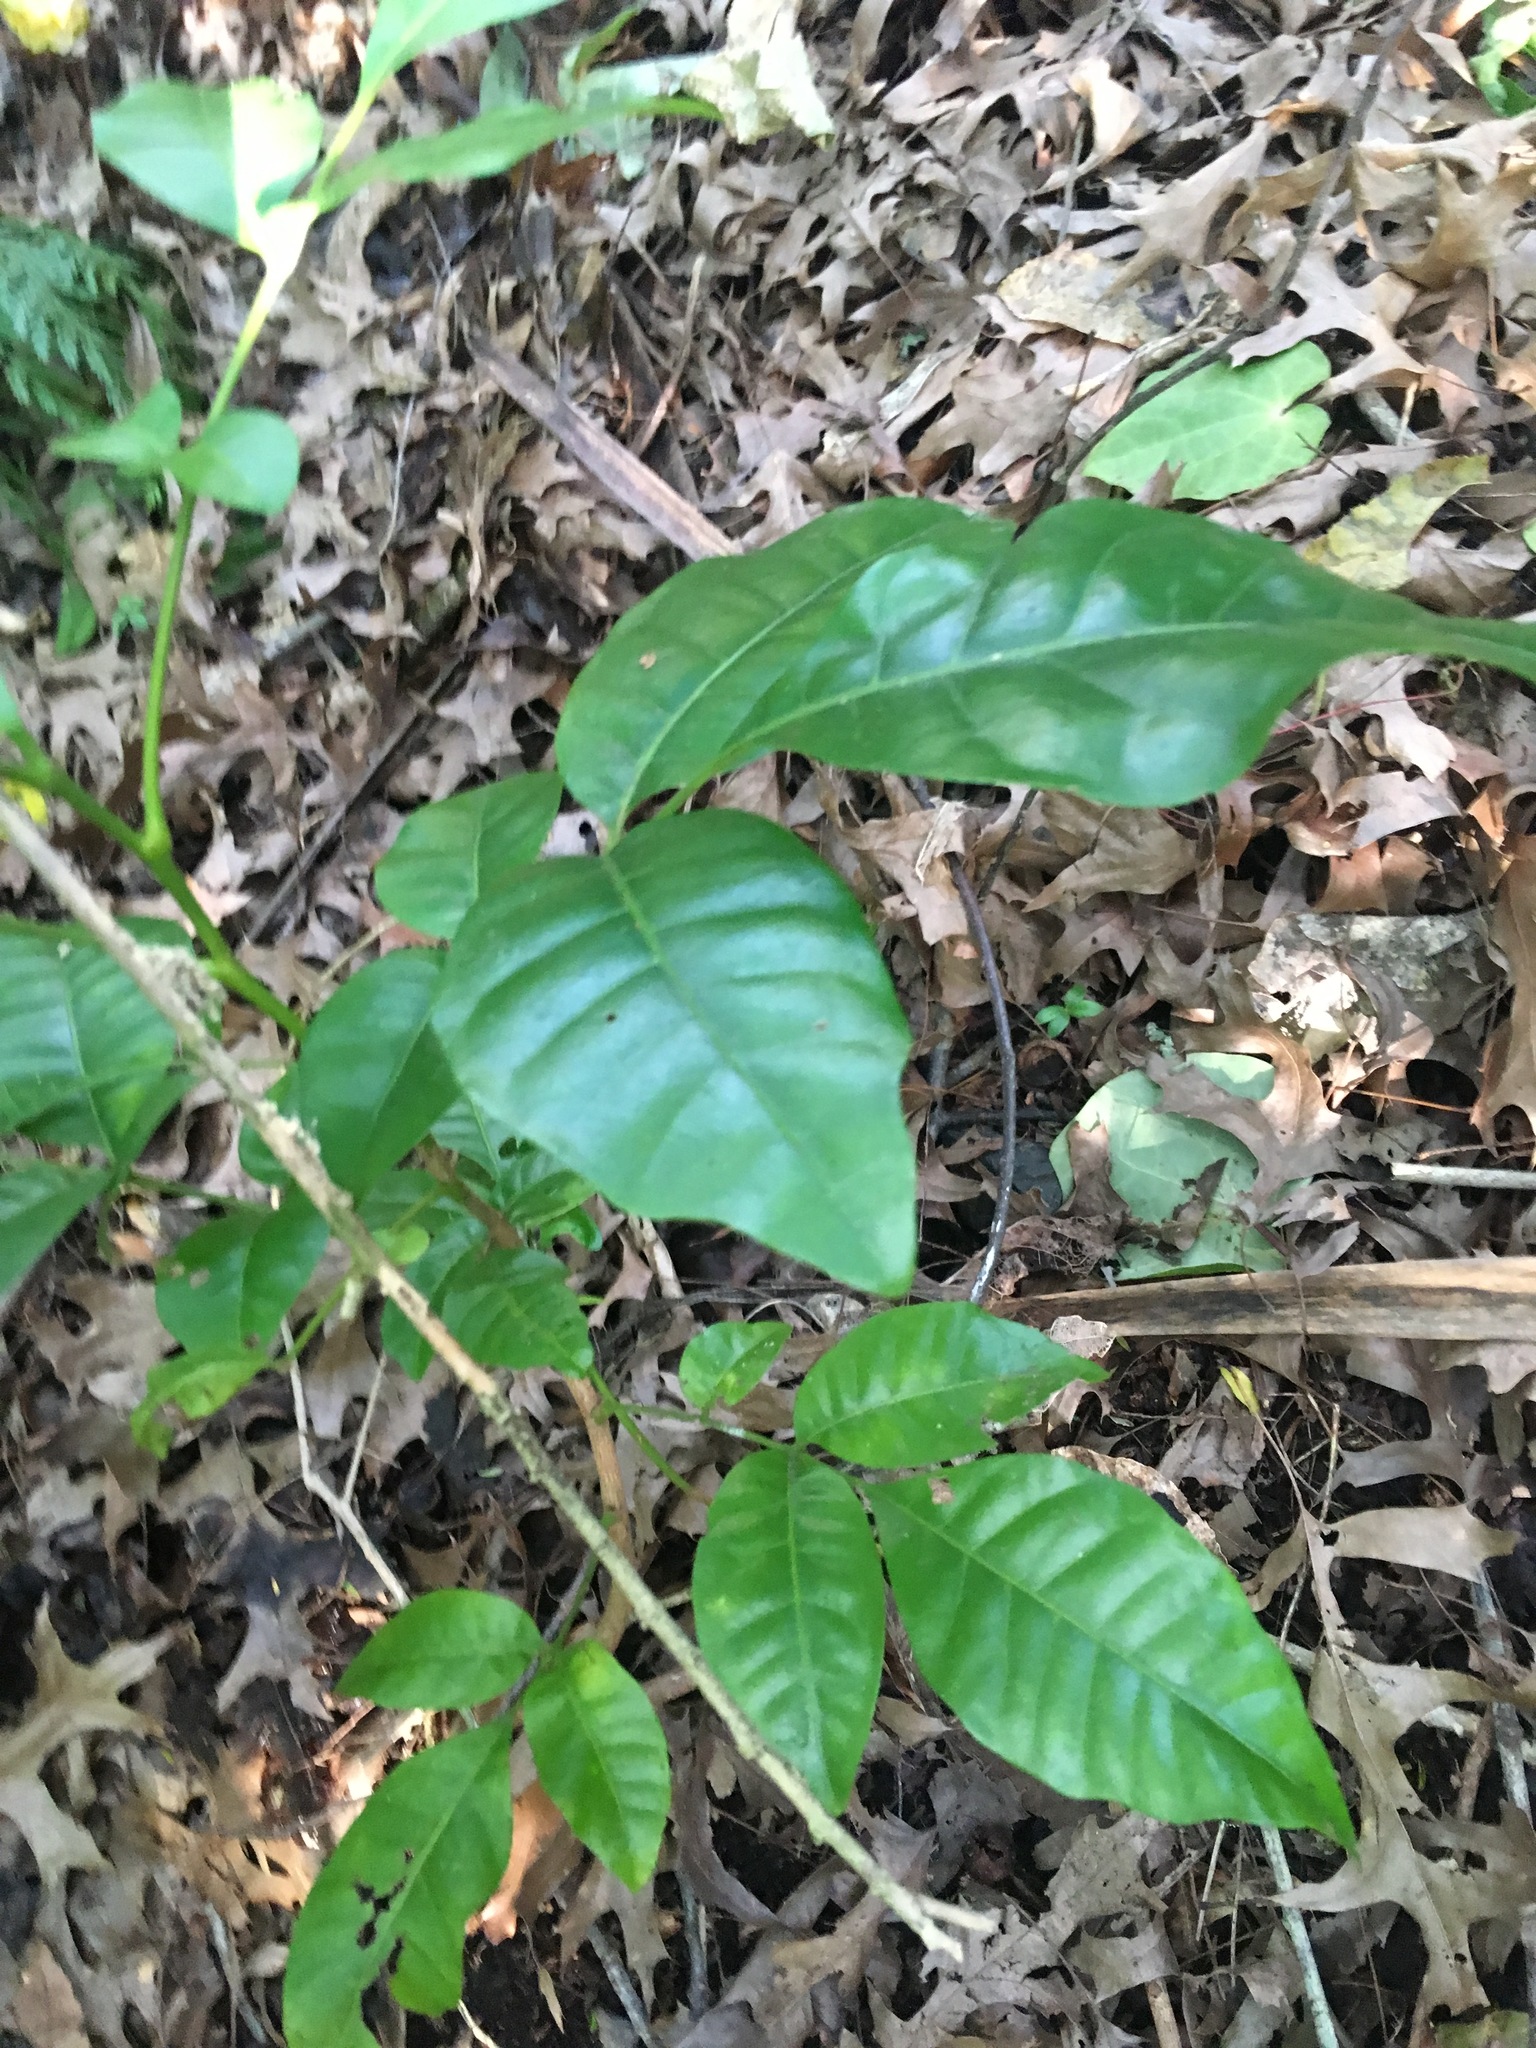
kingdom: Plantae
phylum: Tracheophyta
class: Magnoliopsida
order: Sapindales
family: Meliaceae
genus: Didymocheton
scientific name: Didymocheton spectabilis
